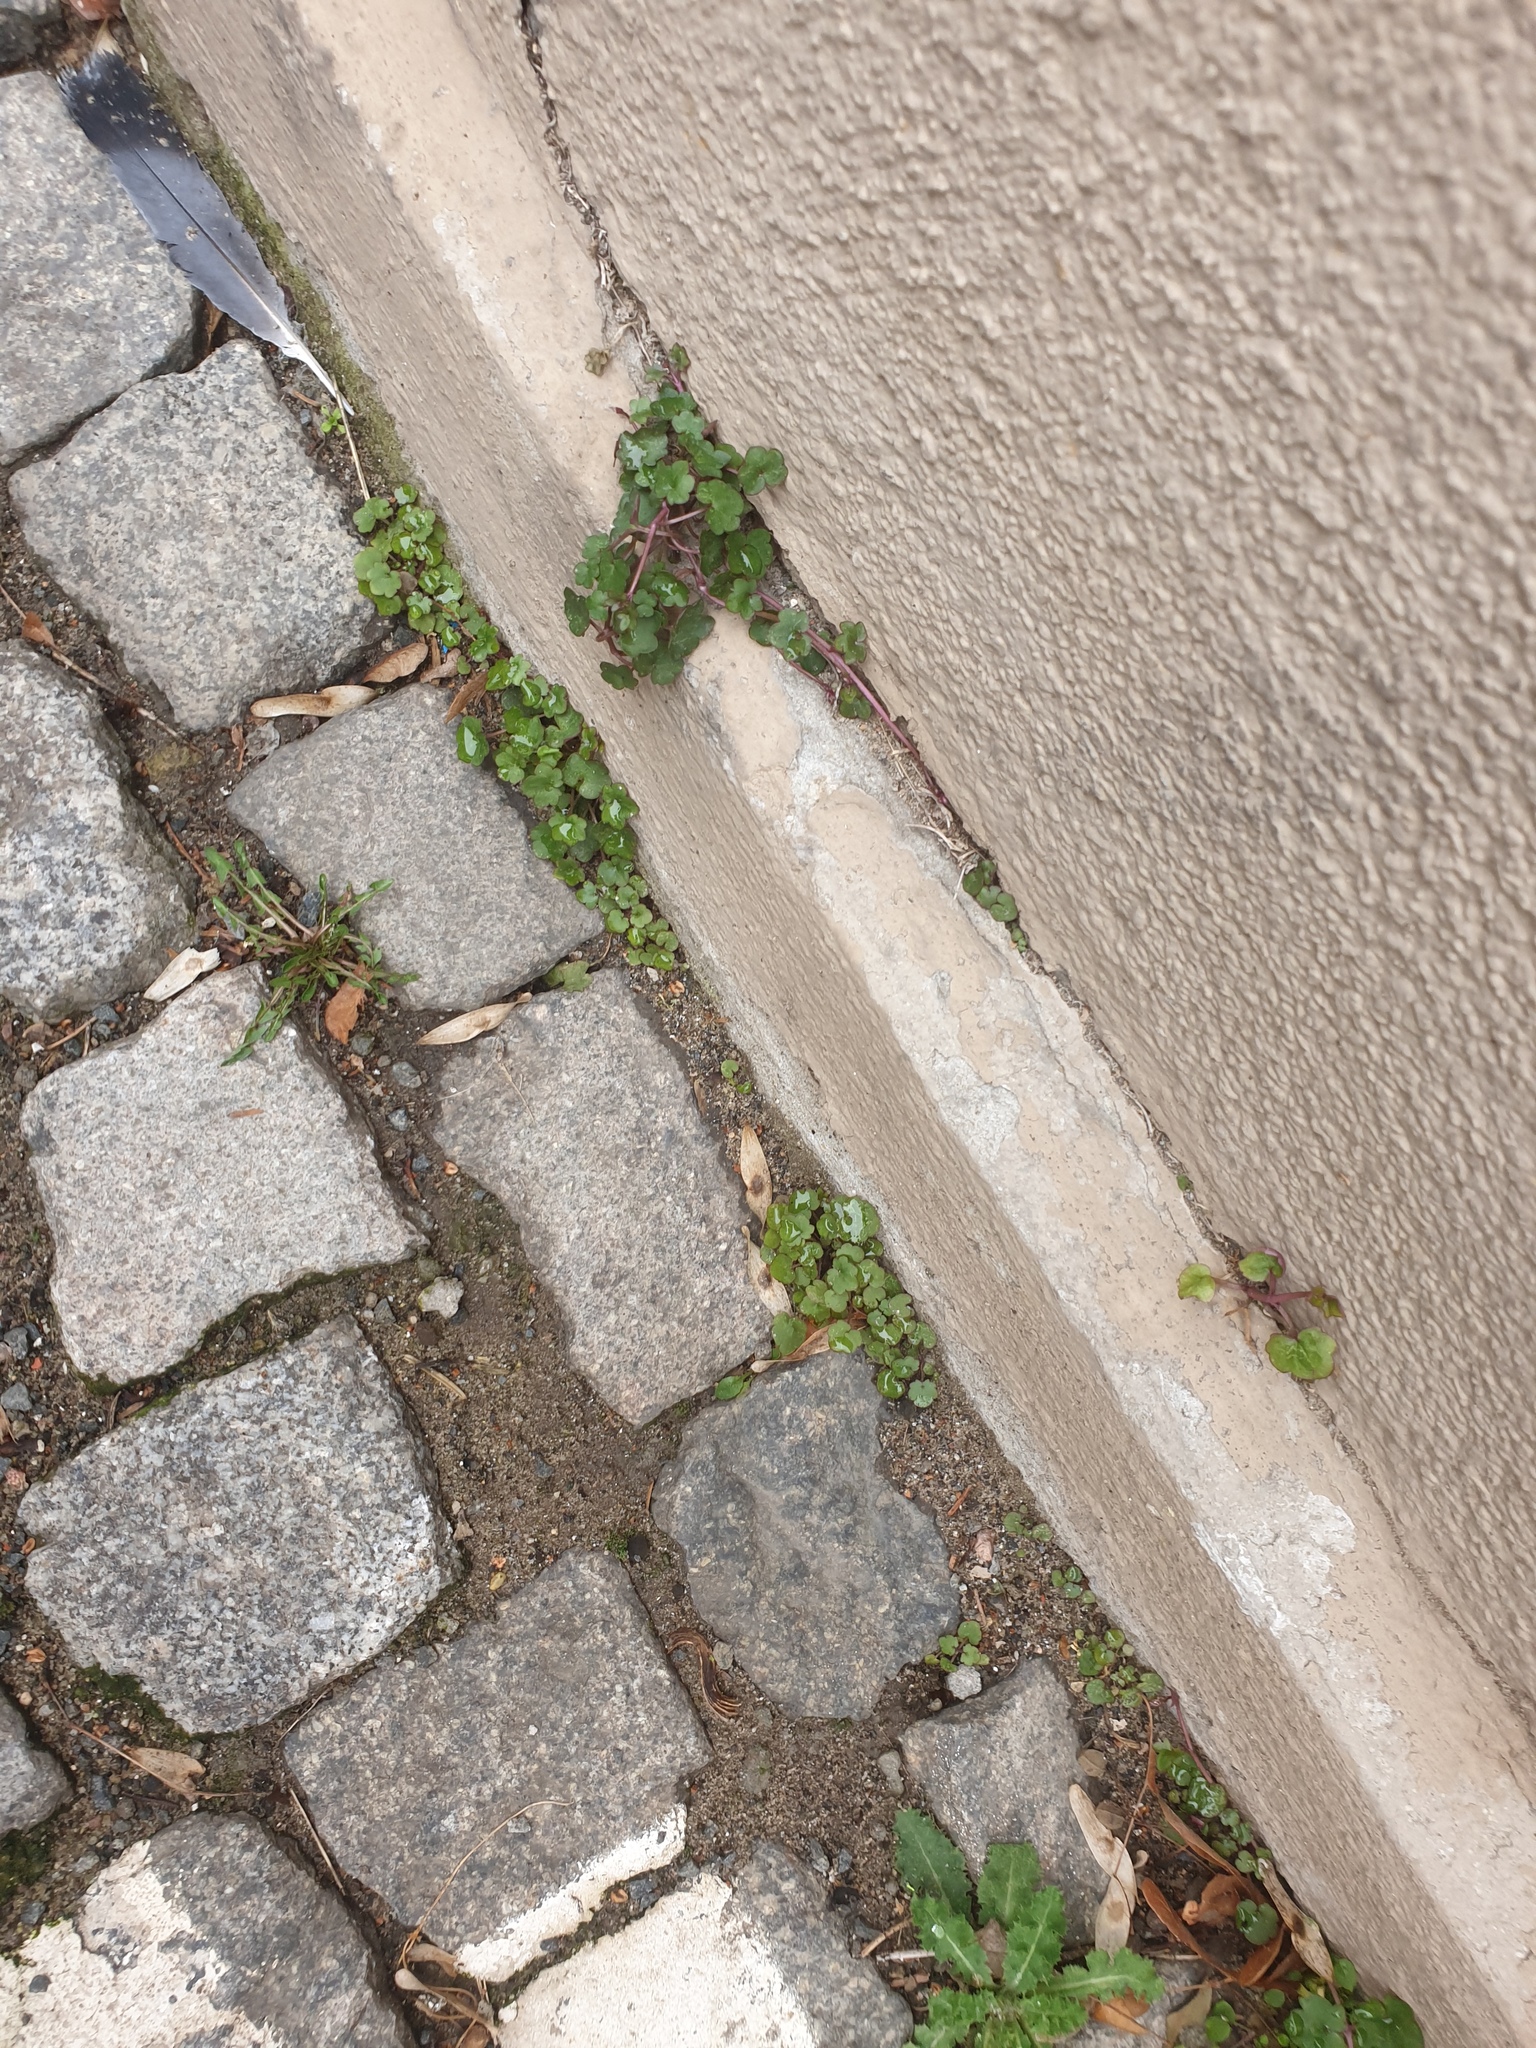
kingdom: Plantae
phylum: Tracheophyta
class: Magnoliopsida
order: Lamiales
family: Plantaginaceae
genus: Cymbalaria
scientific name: Cymbalaria muralis
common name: Ivy-leaved toadflax
